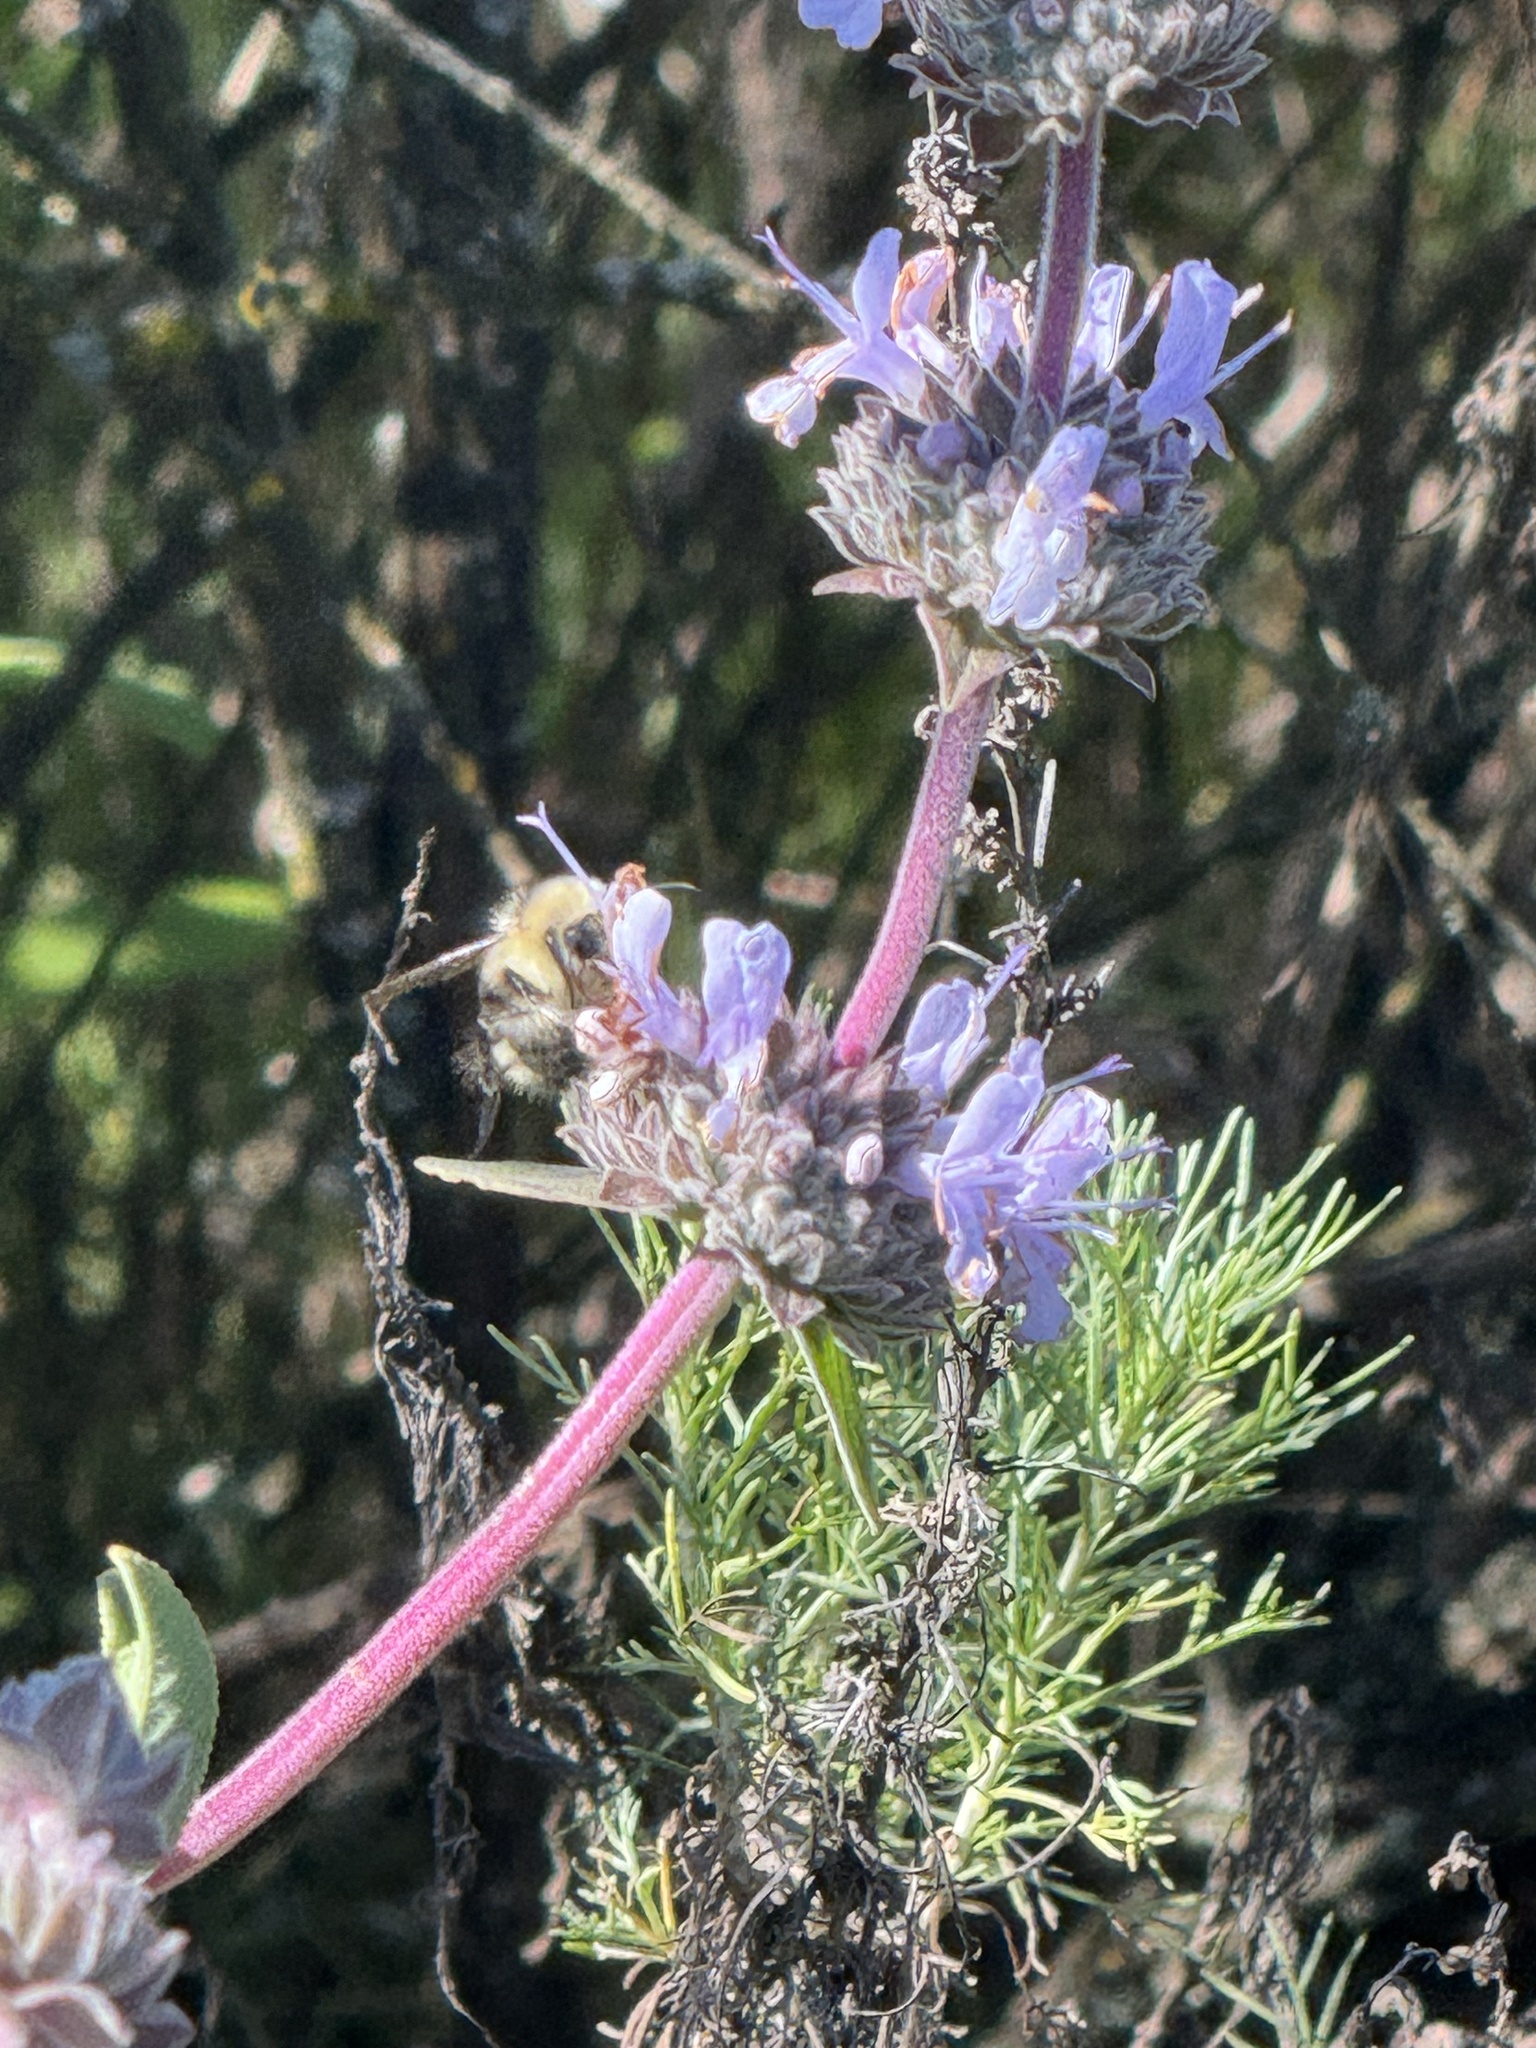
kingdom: Animalia
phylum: Arthropoda
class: Insecta
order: Hymenoptera
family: Apidae
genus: Bombus
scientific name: Bombus melanopygus
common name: Black tail bumble bee
